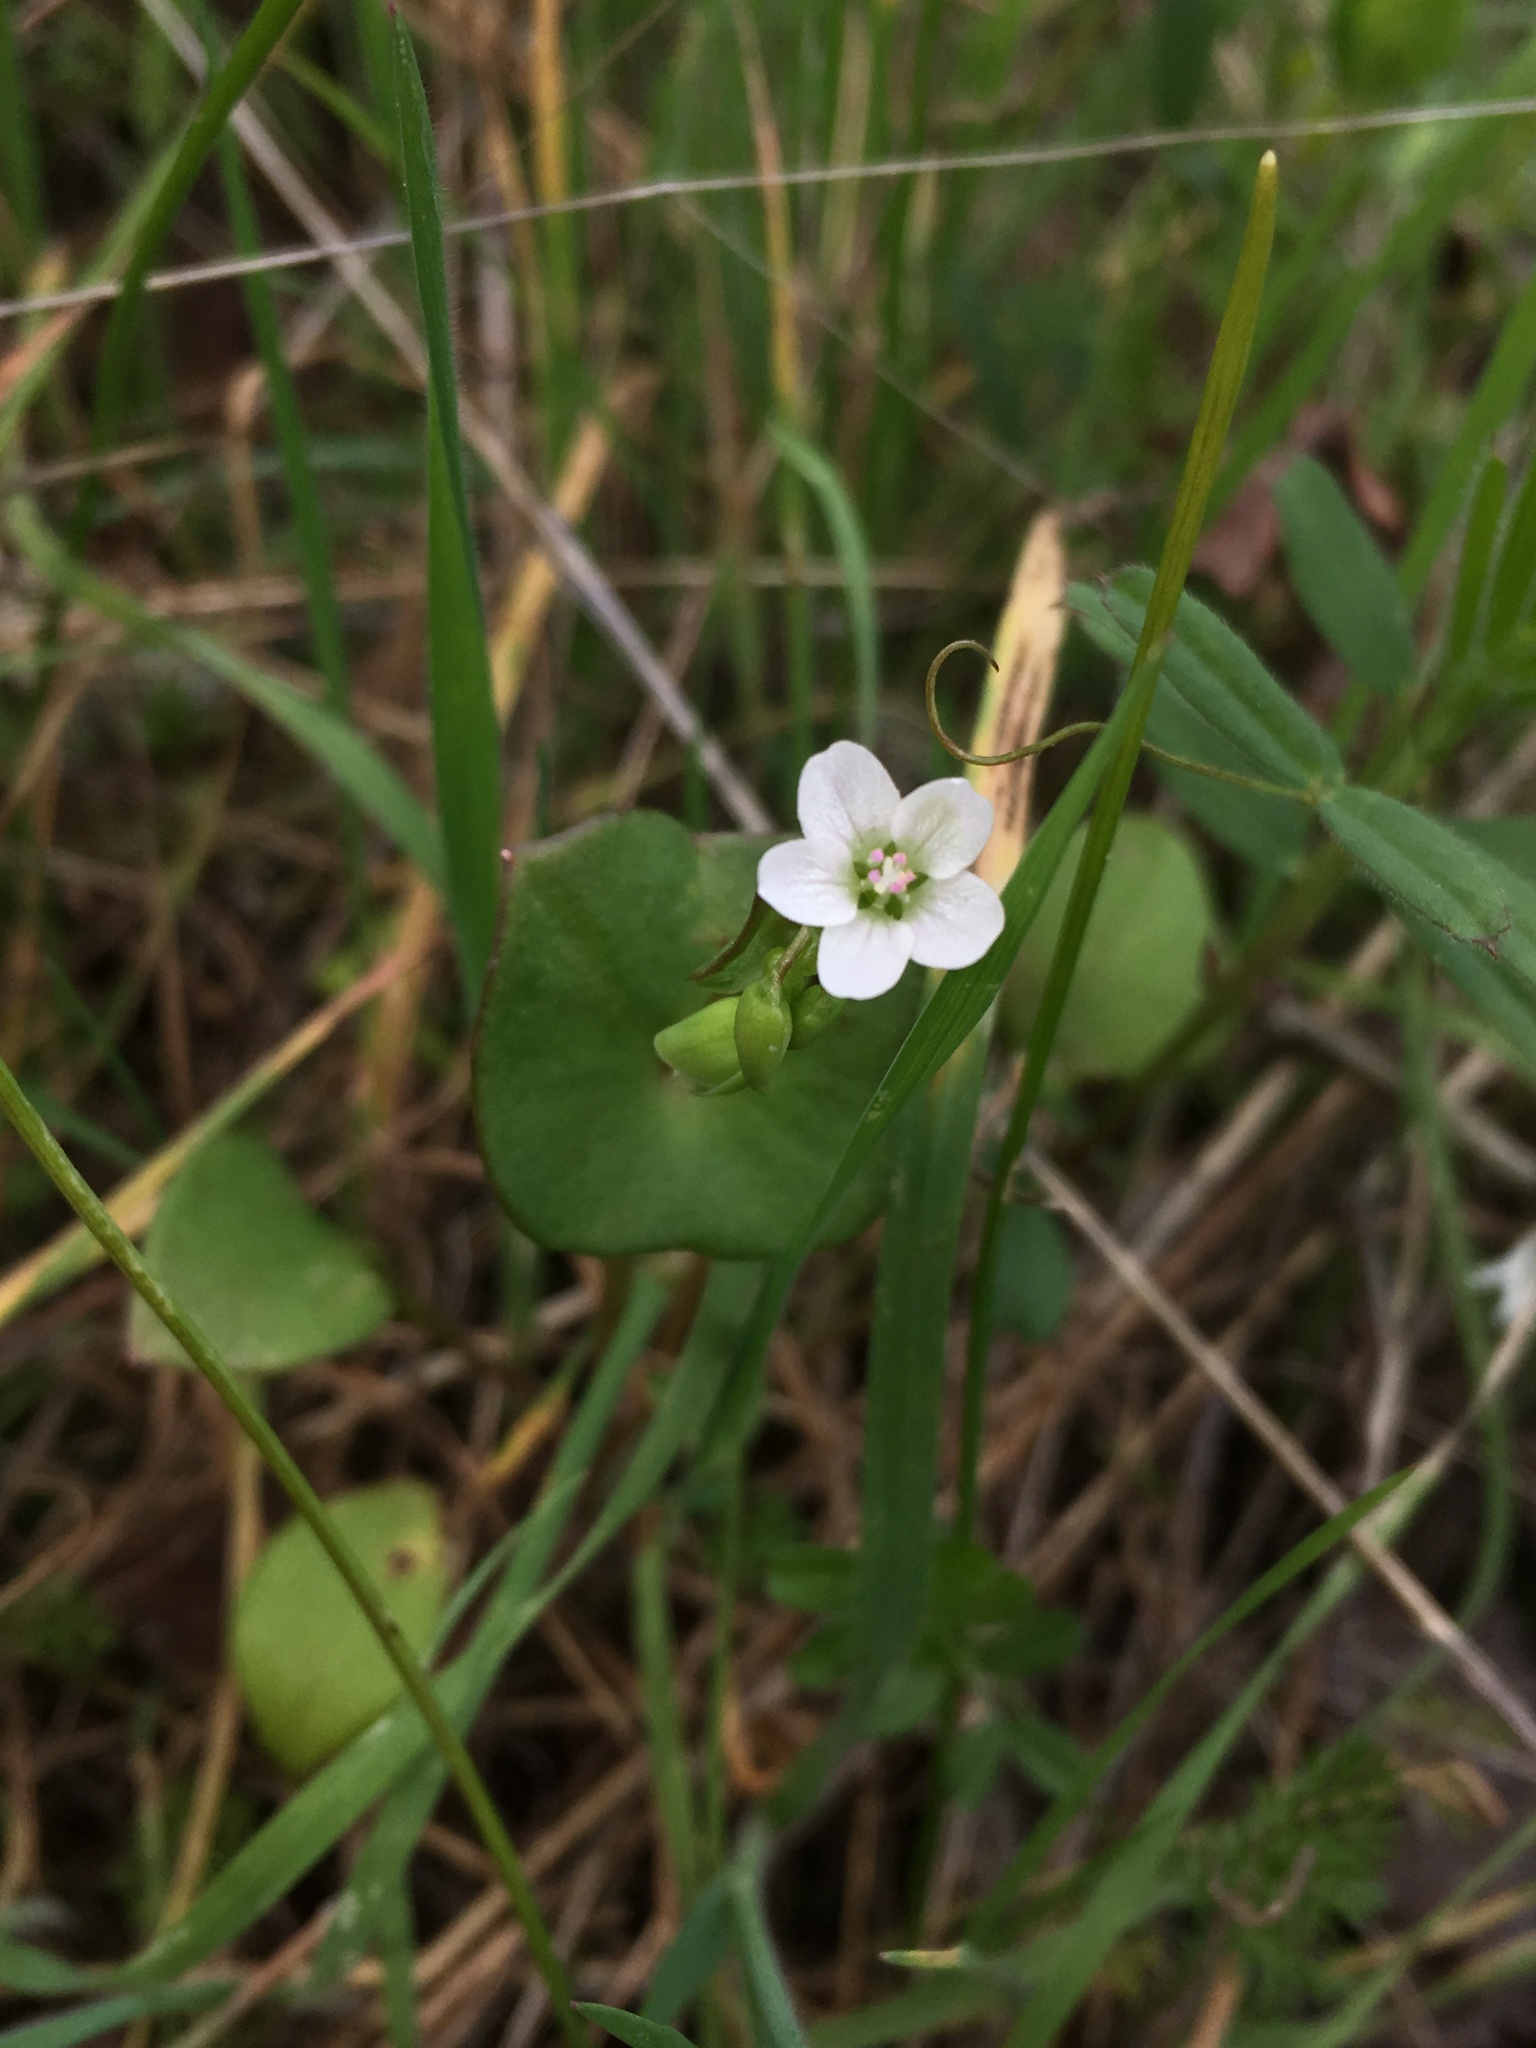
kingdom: Plantae
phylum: Tracheophyta
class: Magnoliopsida
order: Caryophyllales
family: Montiaceae
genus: Claytonia
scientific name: Claytonia perfoliata
